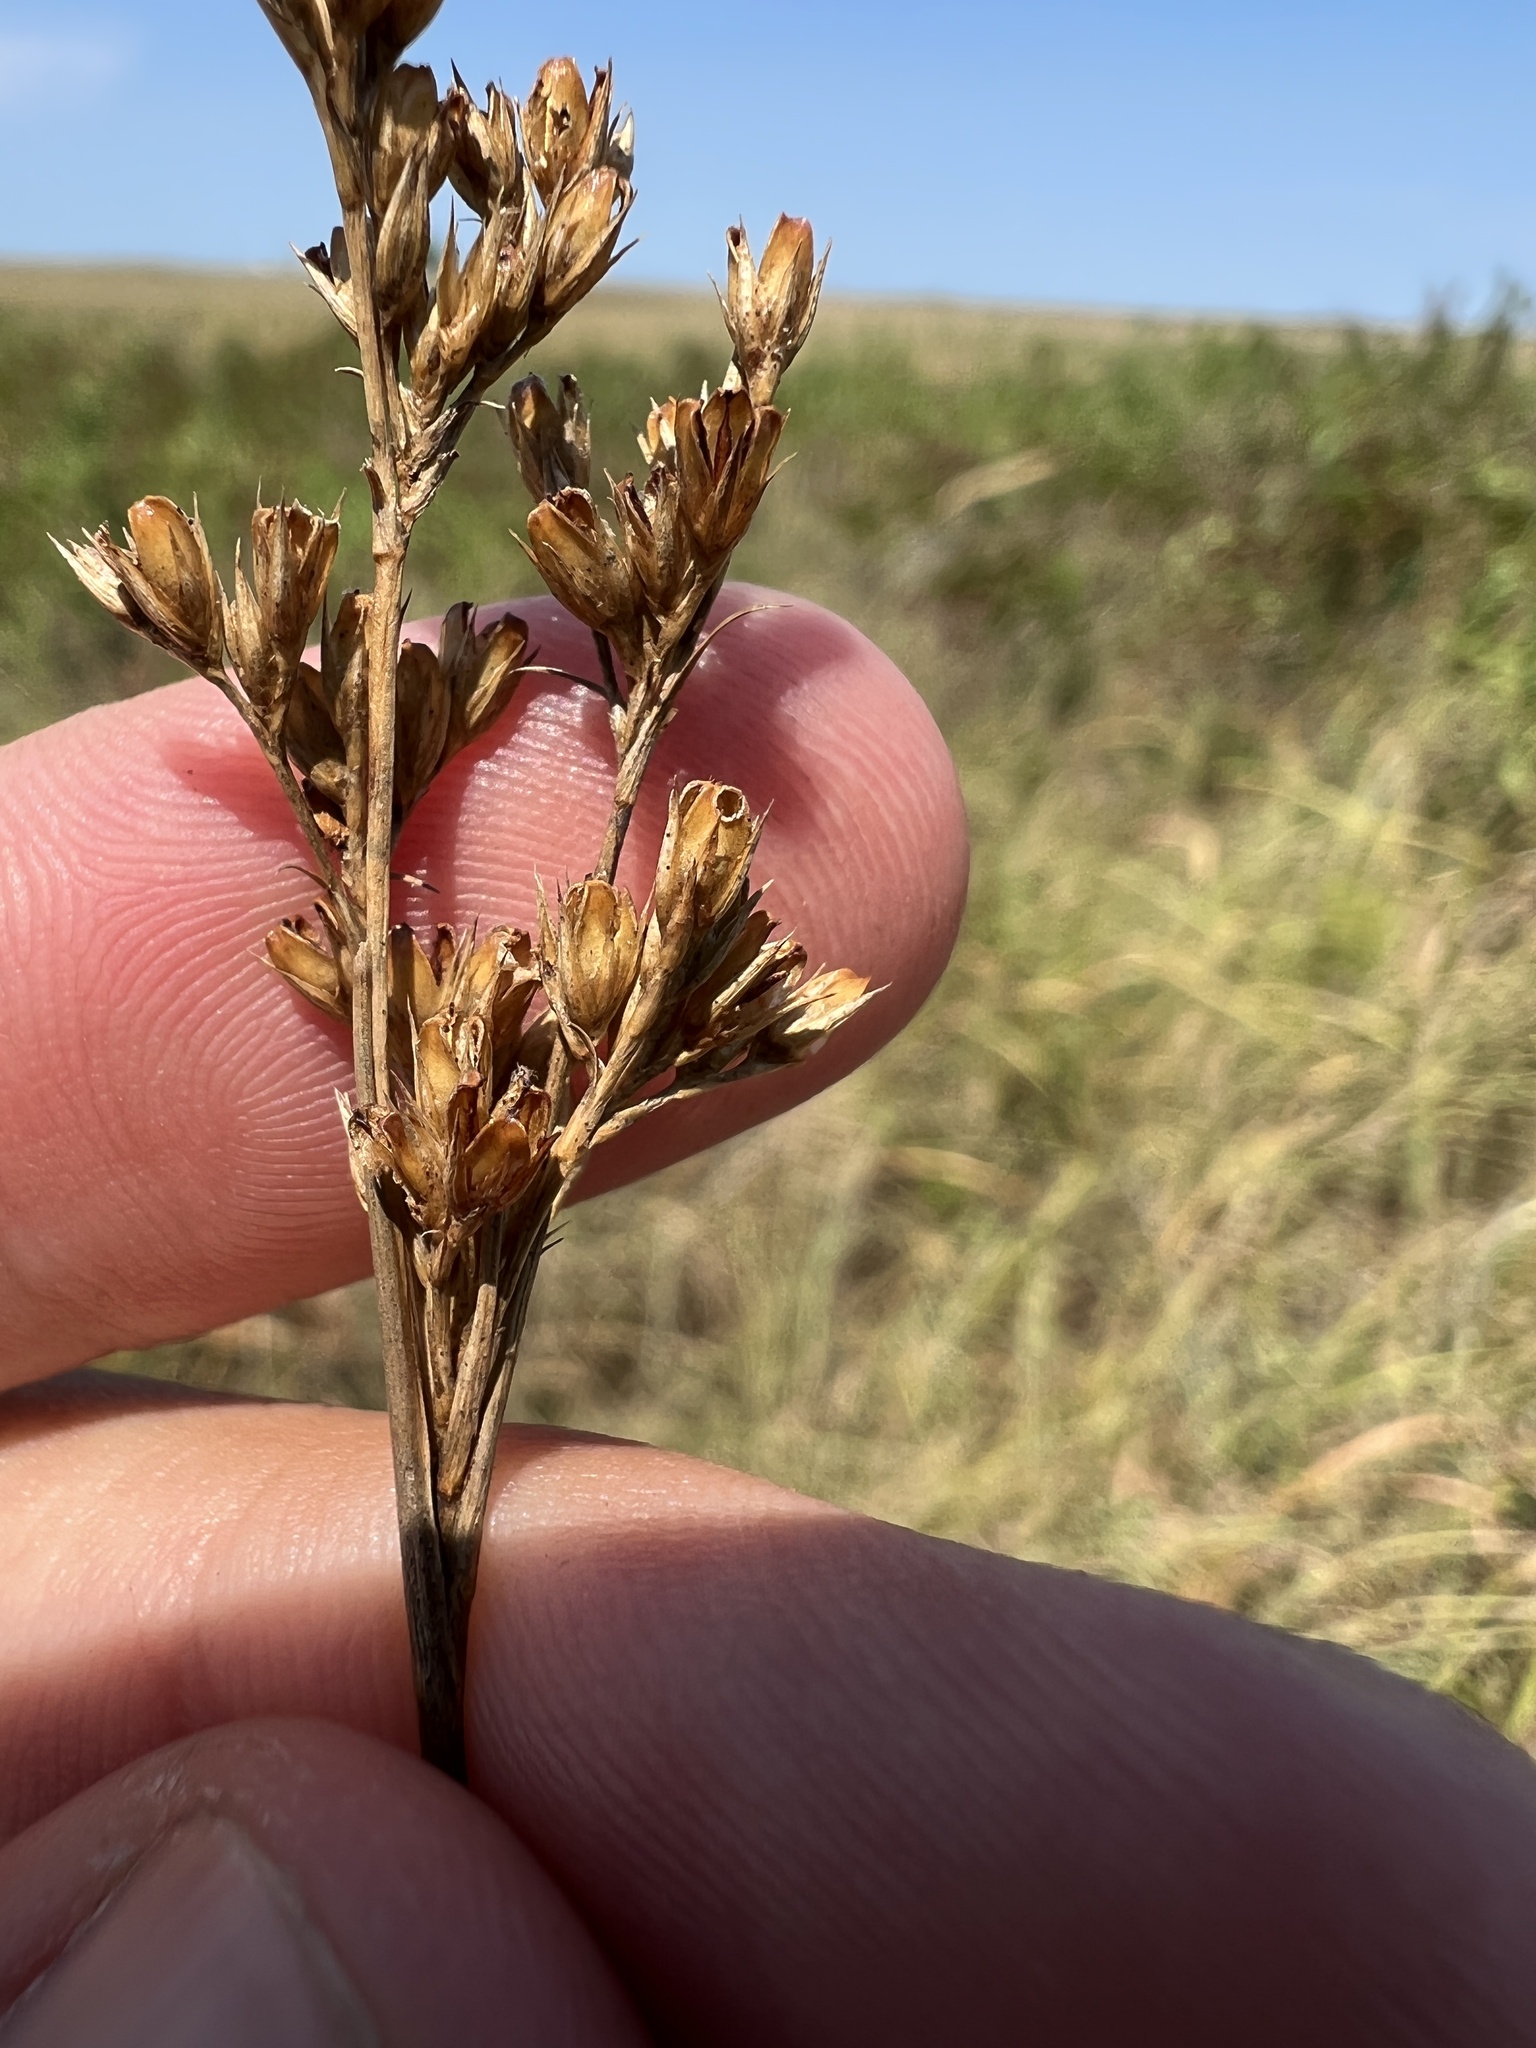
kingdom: Plantae
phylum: Tracheophyta
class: Liliopsida
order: Poales
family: Juncaceae
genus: Juncus
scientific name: Juncus brachyphyllus
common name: Tufted-stem rush
